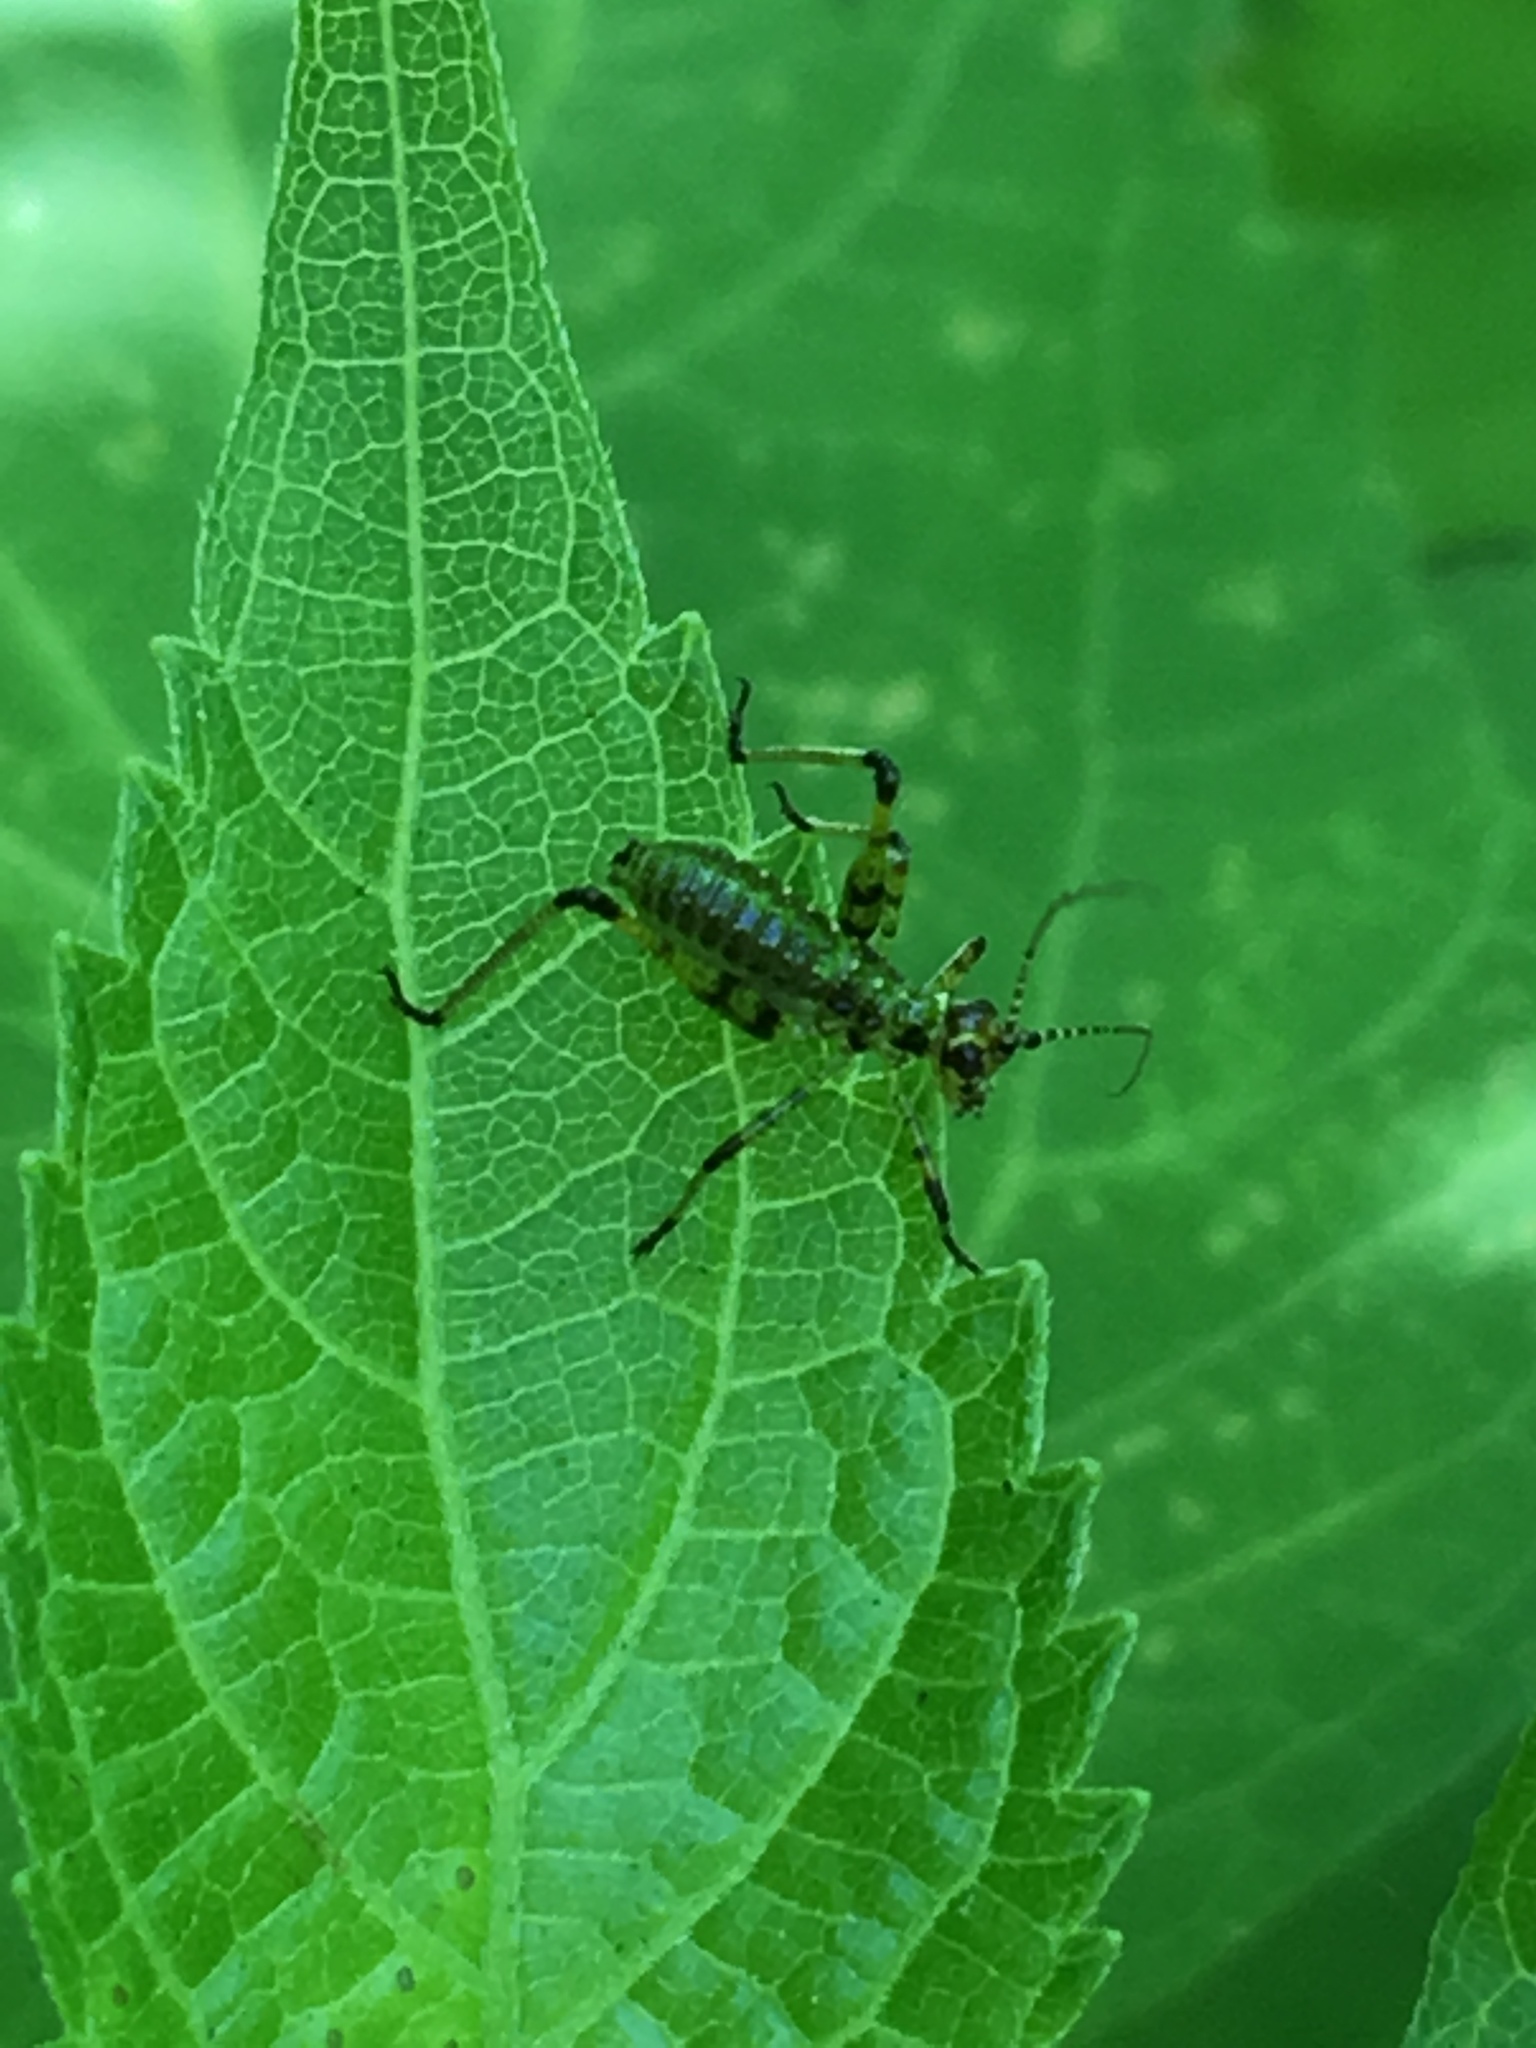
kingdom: Animalia
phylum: Arthropoda
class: Insecta
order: Orthoptera
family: Tettigoniidae
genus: Phaneroptera
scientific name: Phaneroptera nana
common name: Southern sickle bush-cricket
